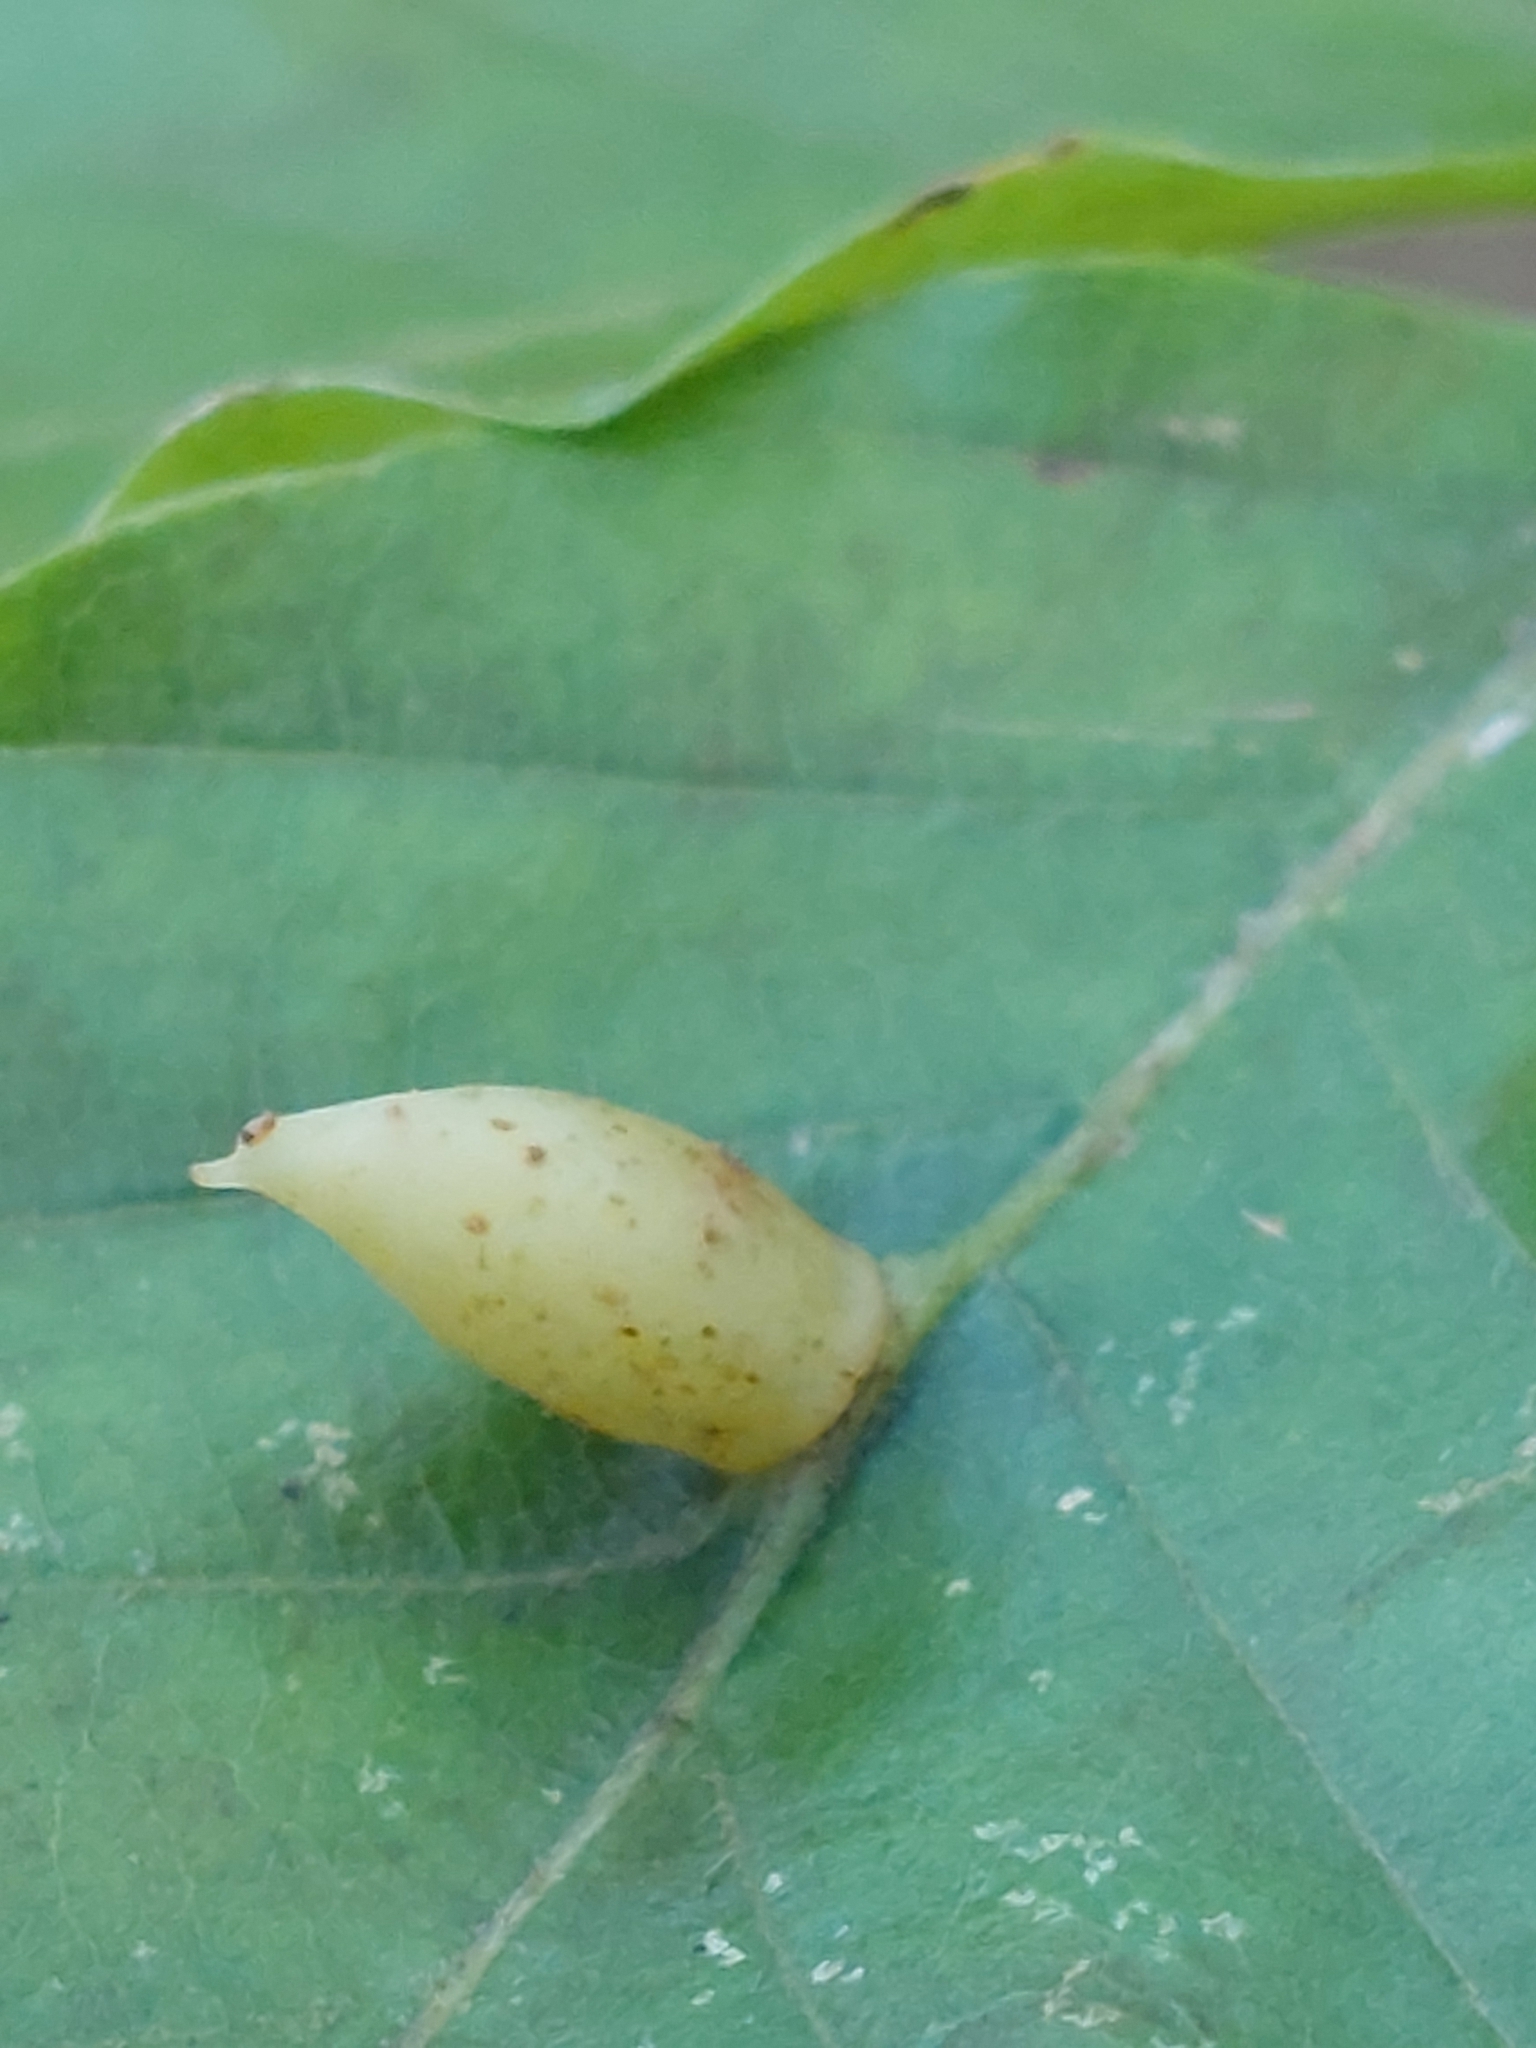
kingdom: Animalia
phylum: Arthropoda
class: Insecta
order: Diptera
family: Cecidomyiidae
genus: Mikiola
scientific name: Mikiola fagi
